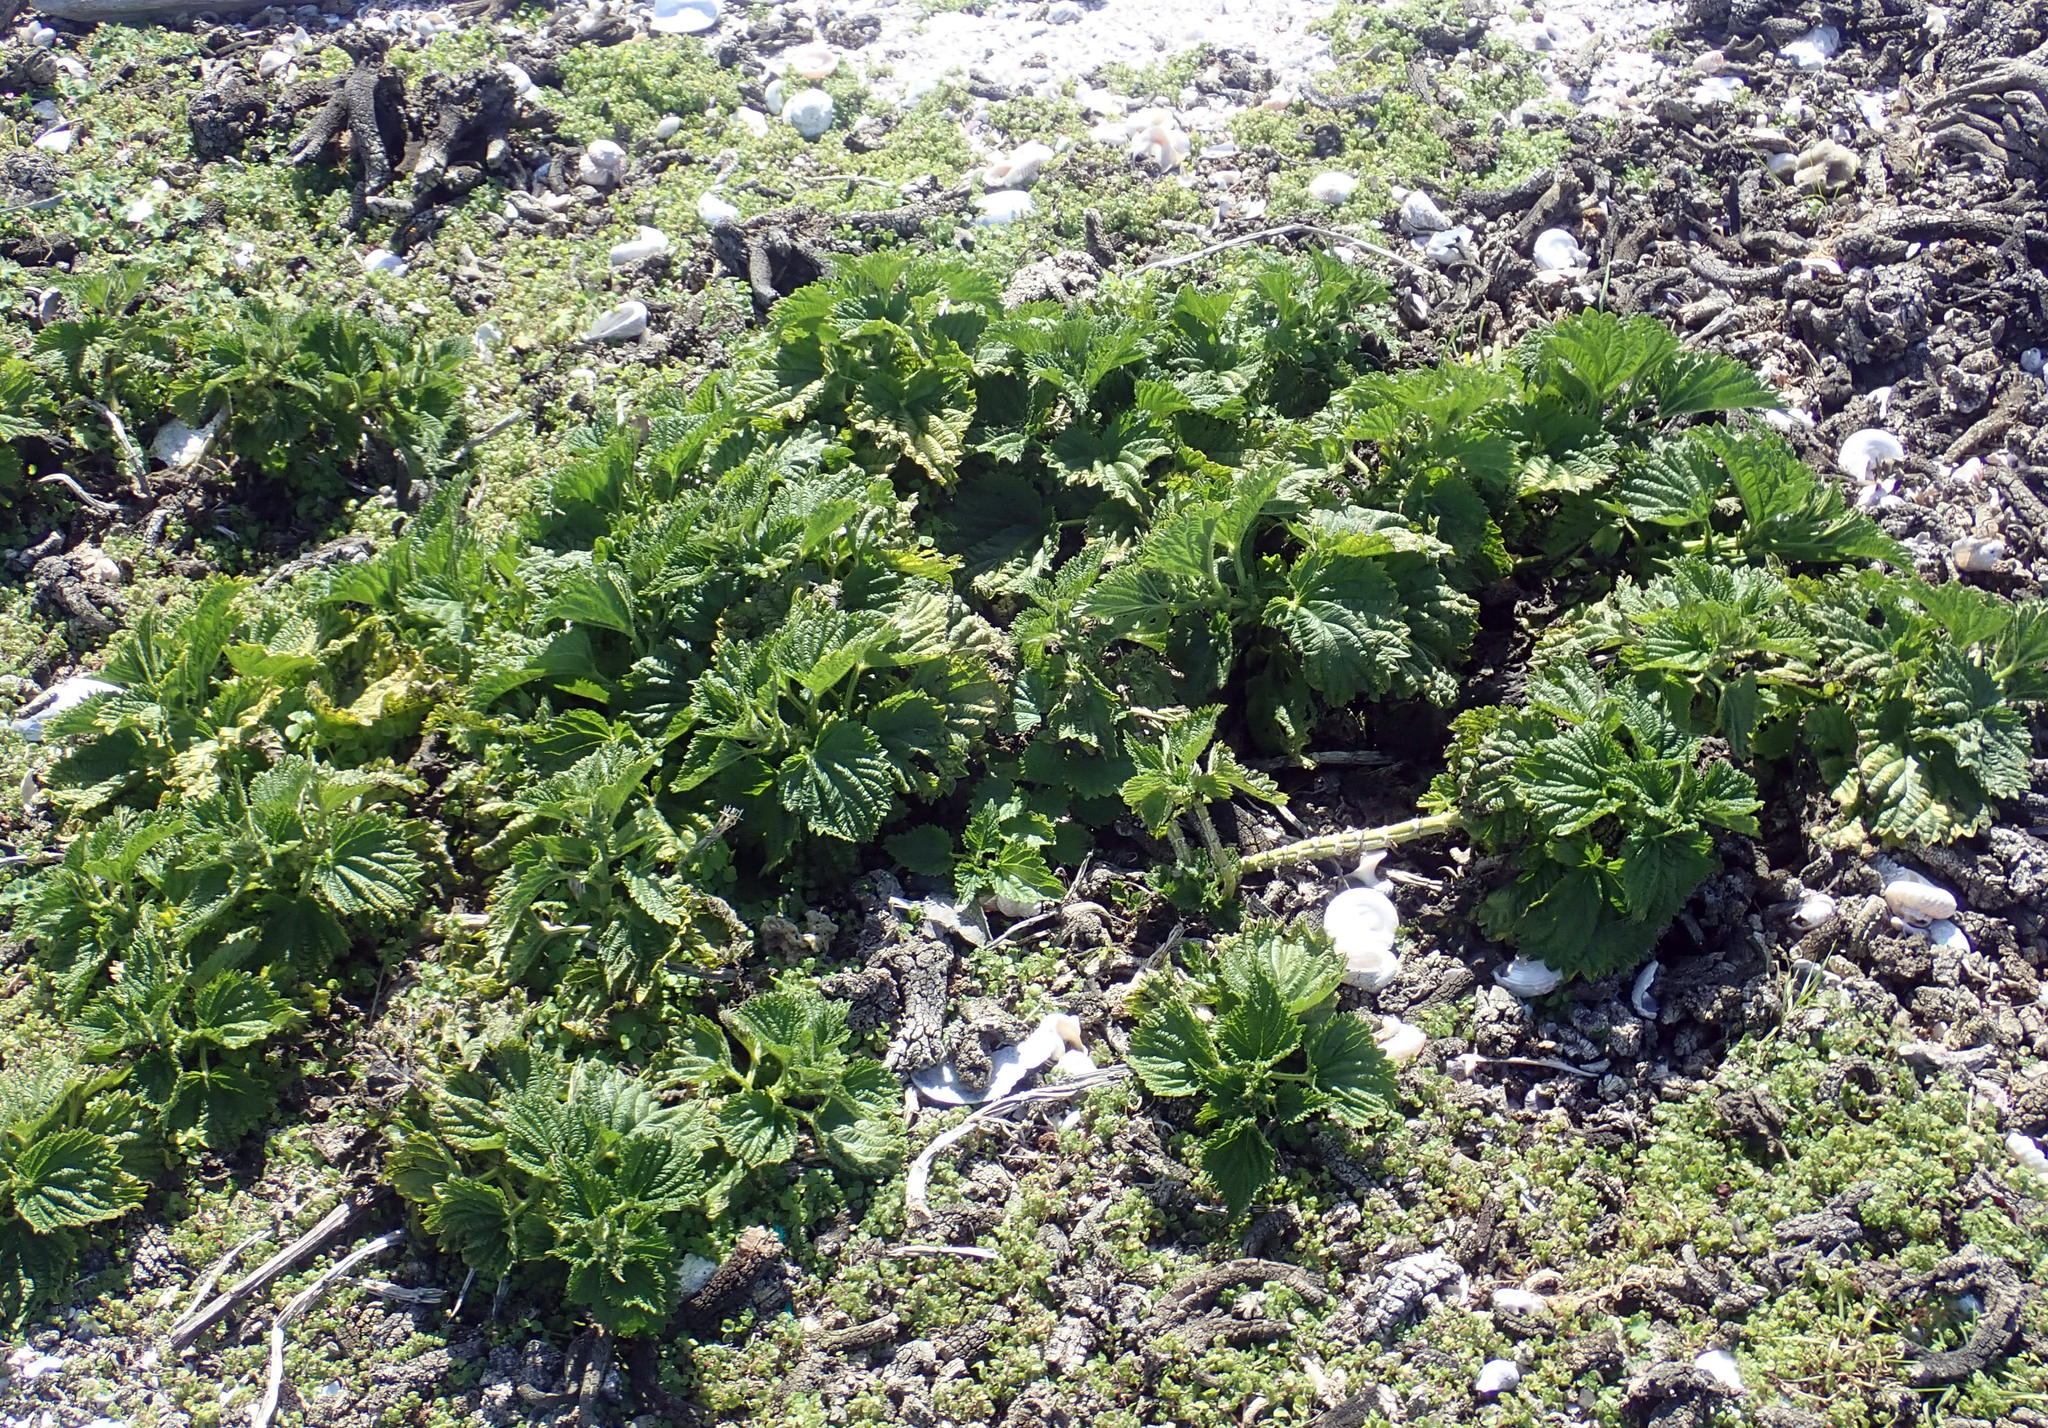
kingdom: Plantae
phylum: Tracheophyta
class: Magnoliopsida
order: Rosales
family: Urticaceae
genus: Urtica
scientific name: Urtica australis
